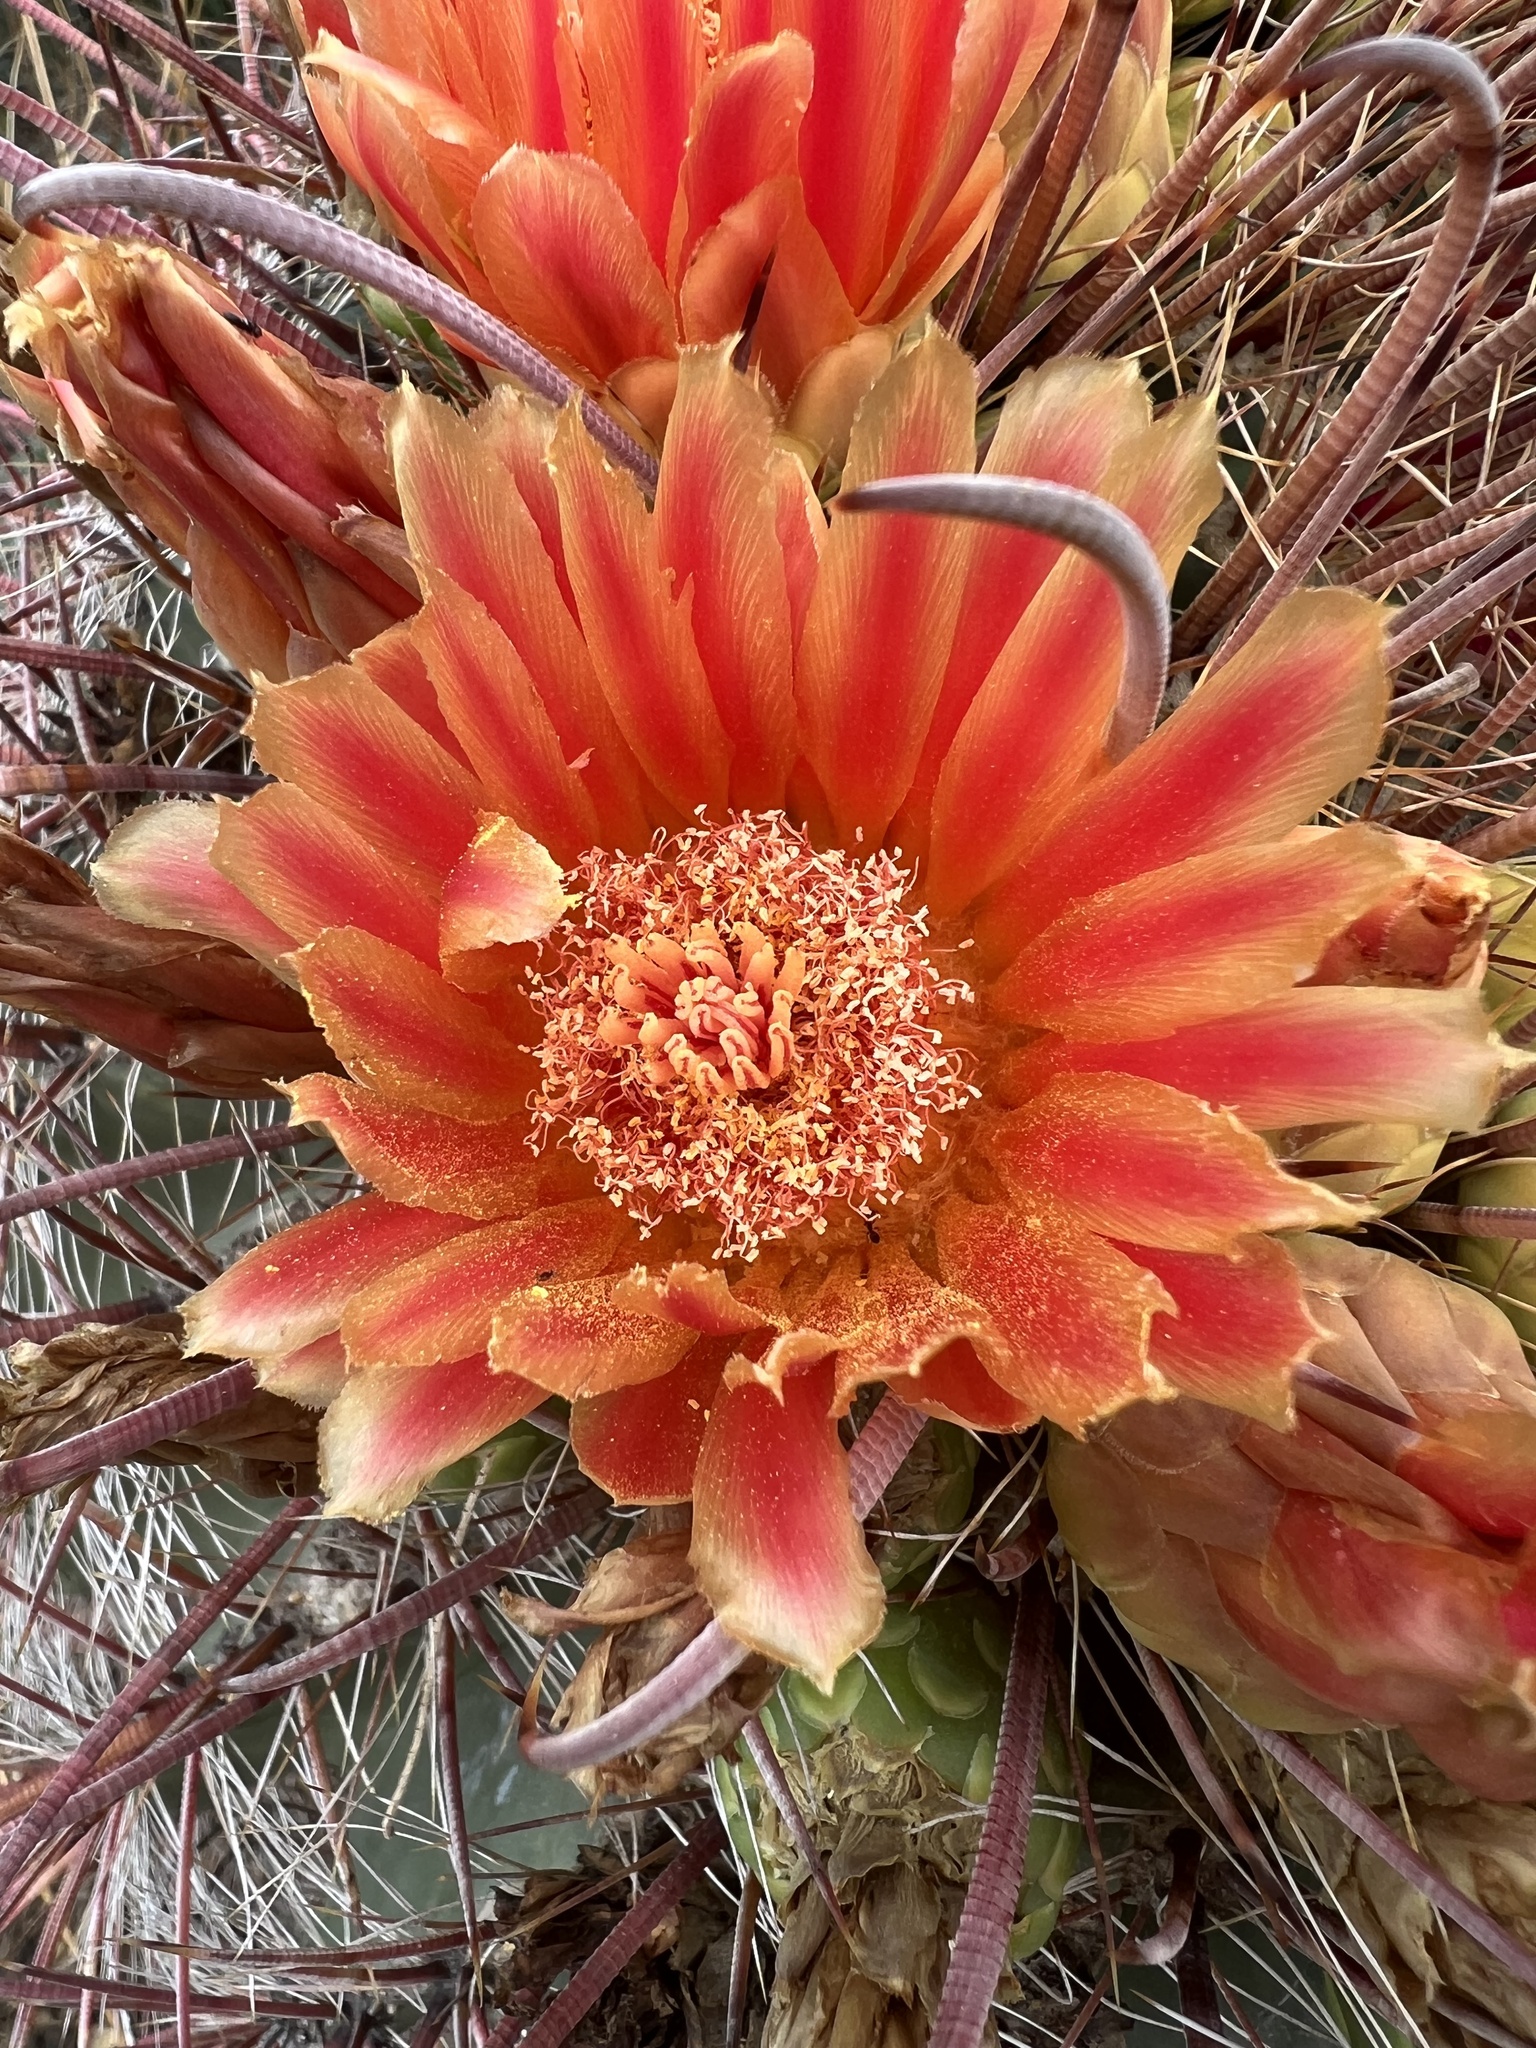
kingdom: Plantae
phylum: Tracheophyta
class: Magnoliopsida
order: Caryophyllales
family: Cactaceae
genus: Ferocactus
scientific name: Ferocactus wislizeni
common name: Candy barrel cactus
